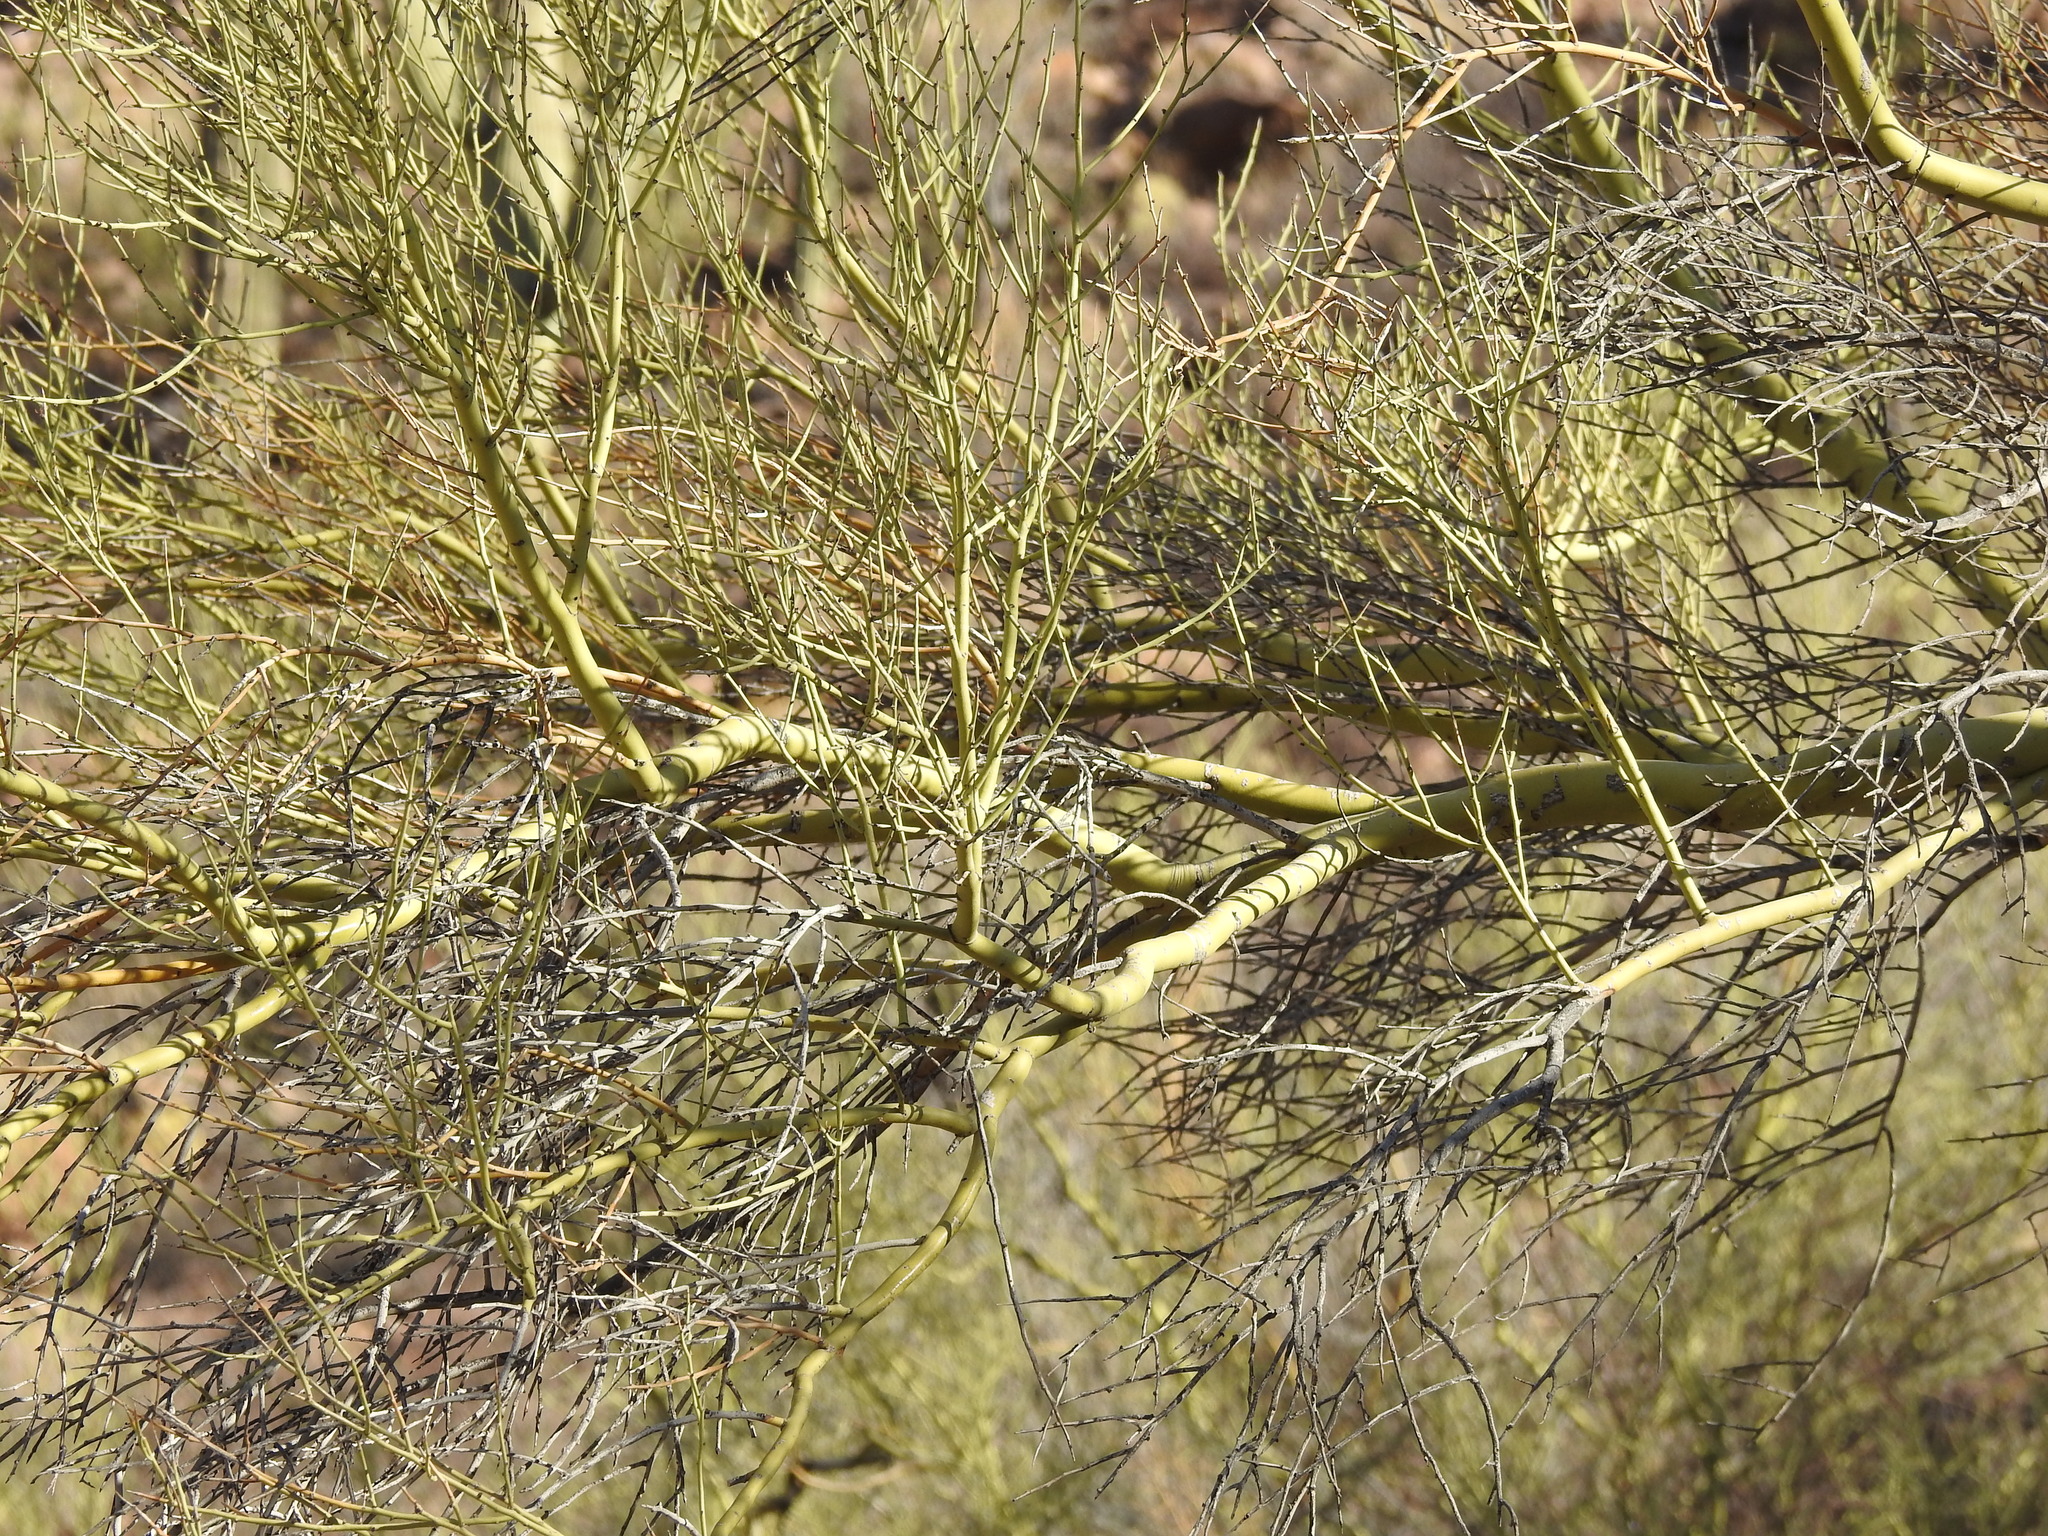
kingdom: Plantae
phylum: Tracheophyta
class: Magnoliopsida
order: Fabales
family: Fabaceae
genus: Parkinsonia
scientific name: Parkinsonia microphylla
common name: Yellow paloverde
